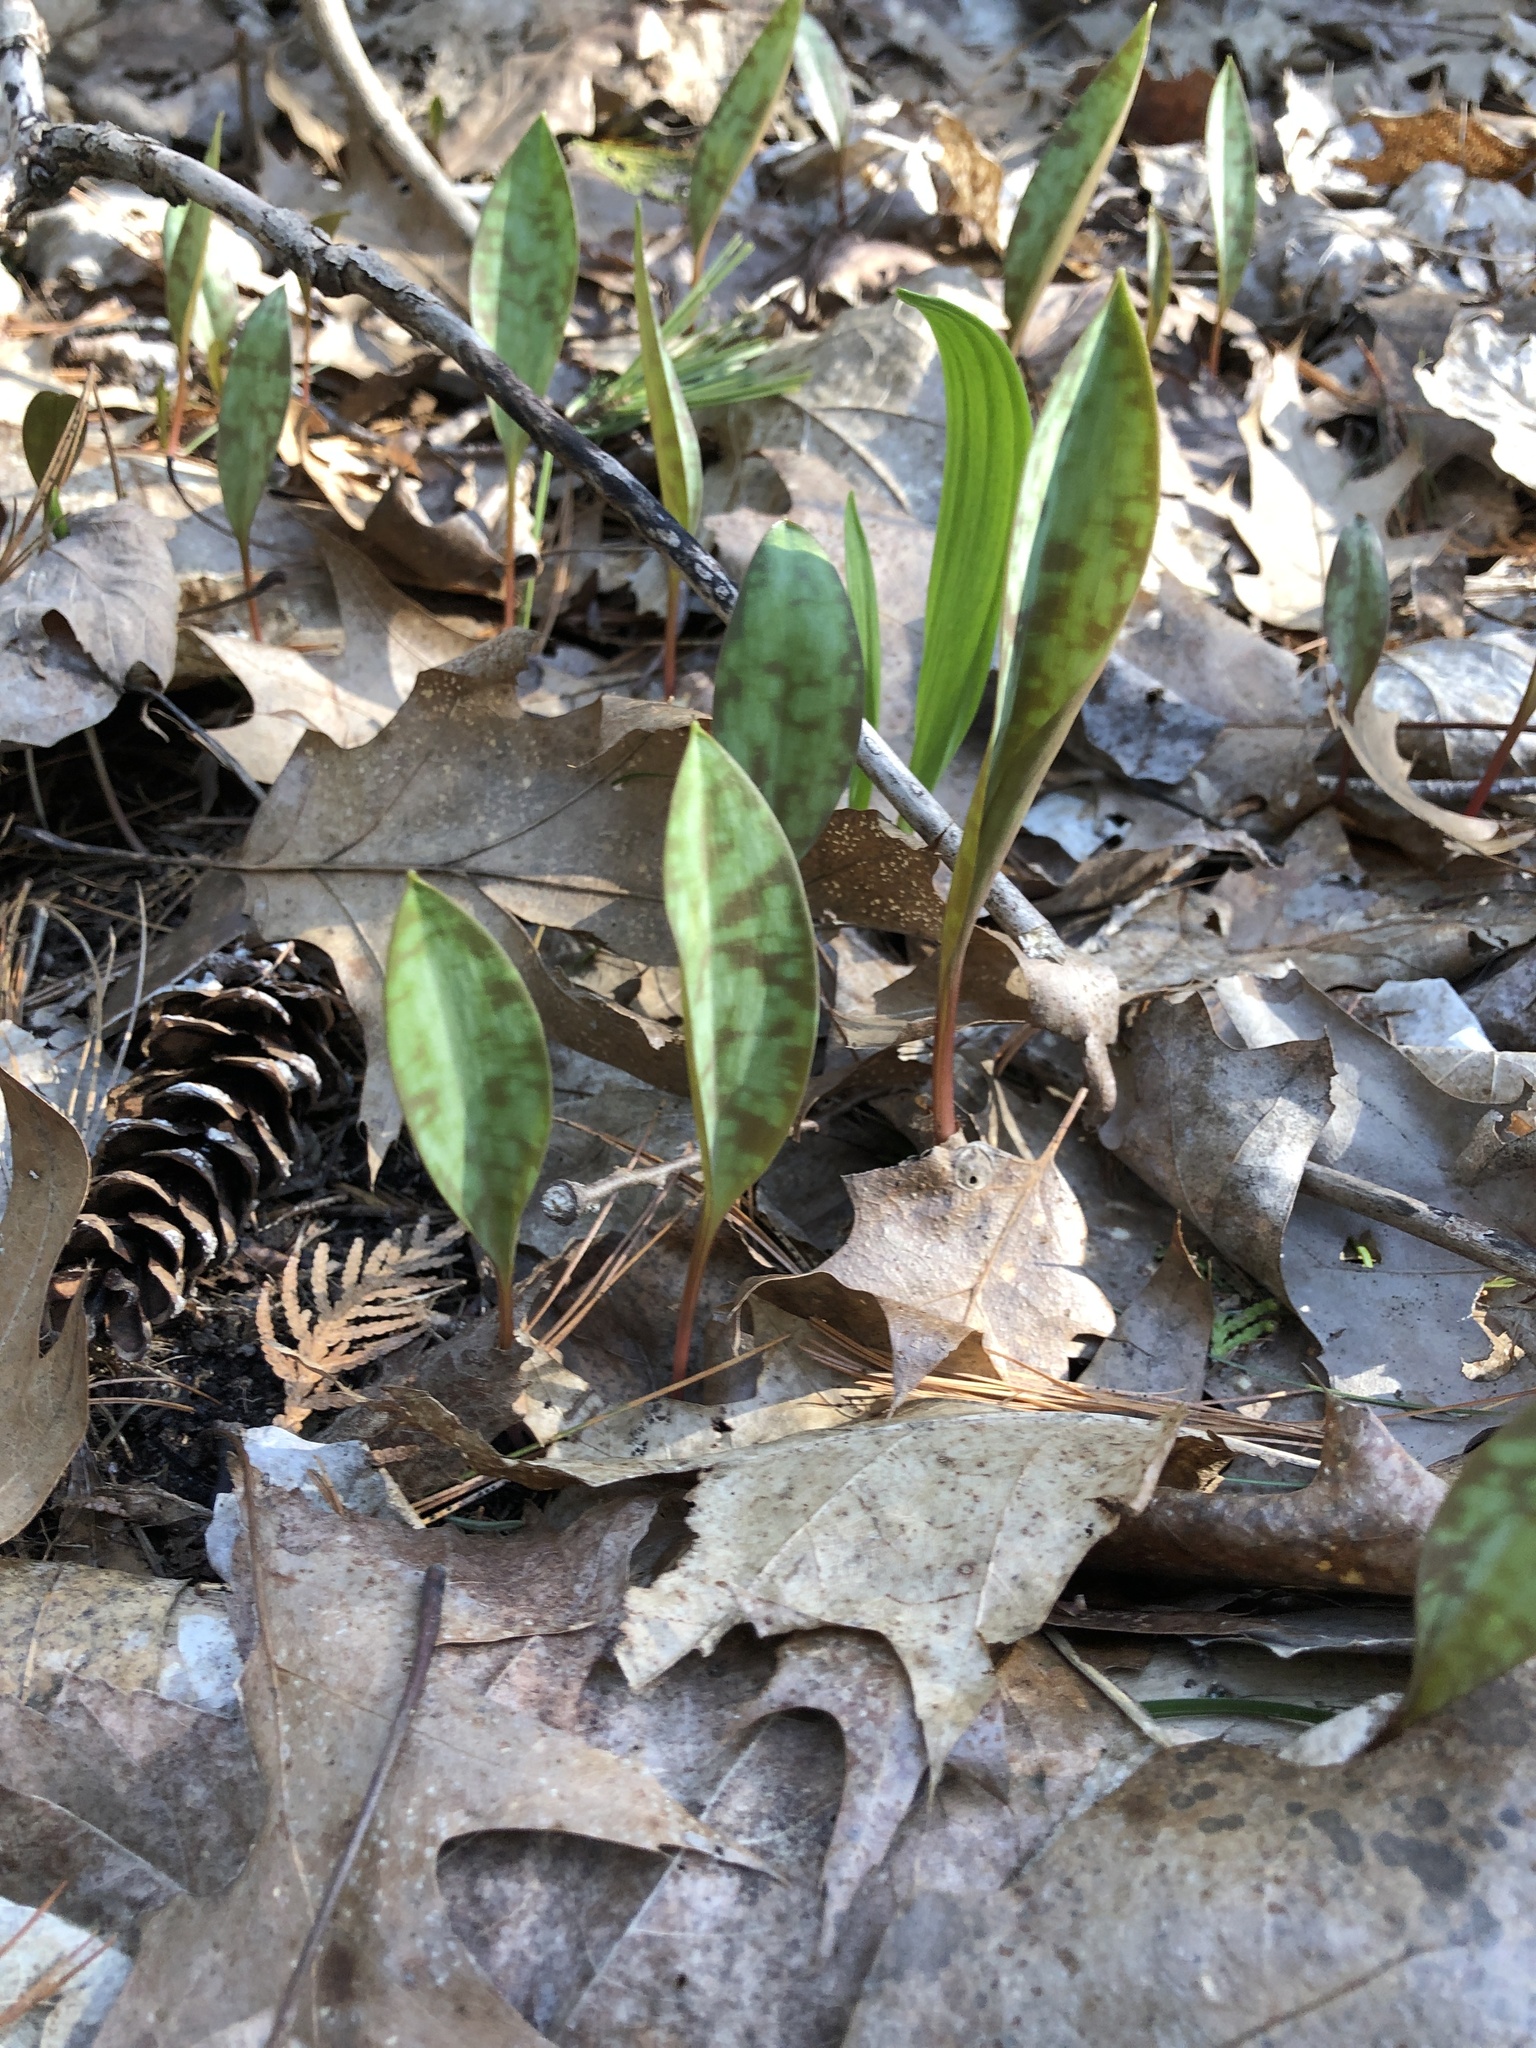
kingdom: Plantae
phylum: Tracheophyta
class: Liliopsida
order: Liliales
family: Liliaceae
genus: Erythronium
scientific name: Erythronium americanum
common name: Yellow adder's-tongue
